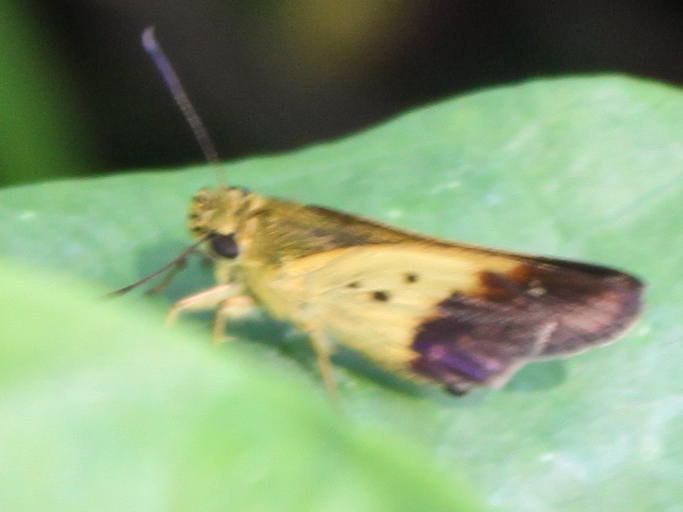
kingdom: Animalia
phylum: Arthropoda
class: Insecta
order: Lepidoptera
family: Hesperiidae
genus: Zographetus
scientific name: Zographetus satwa
